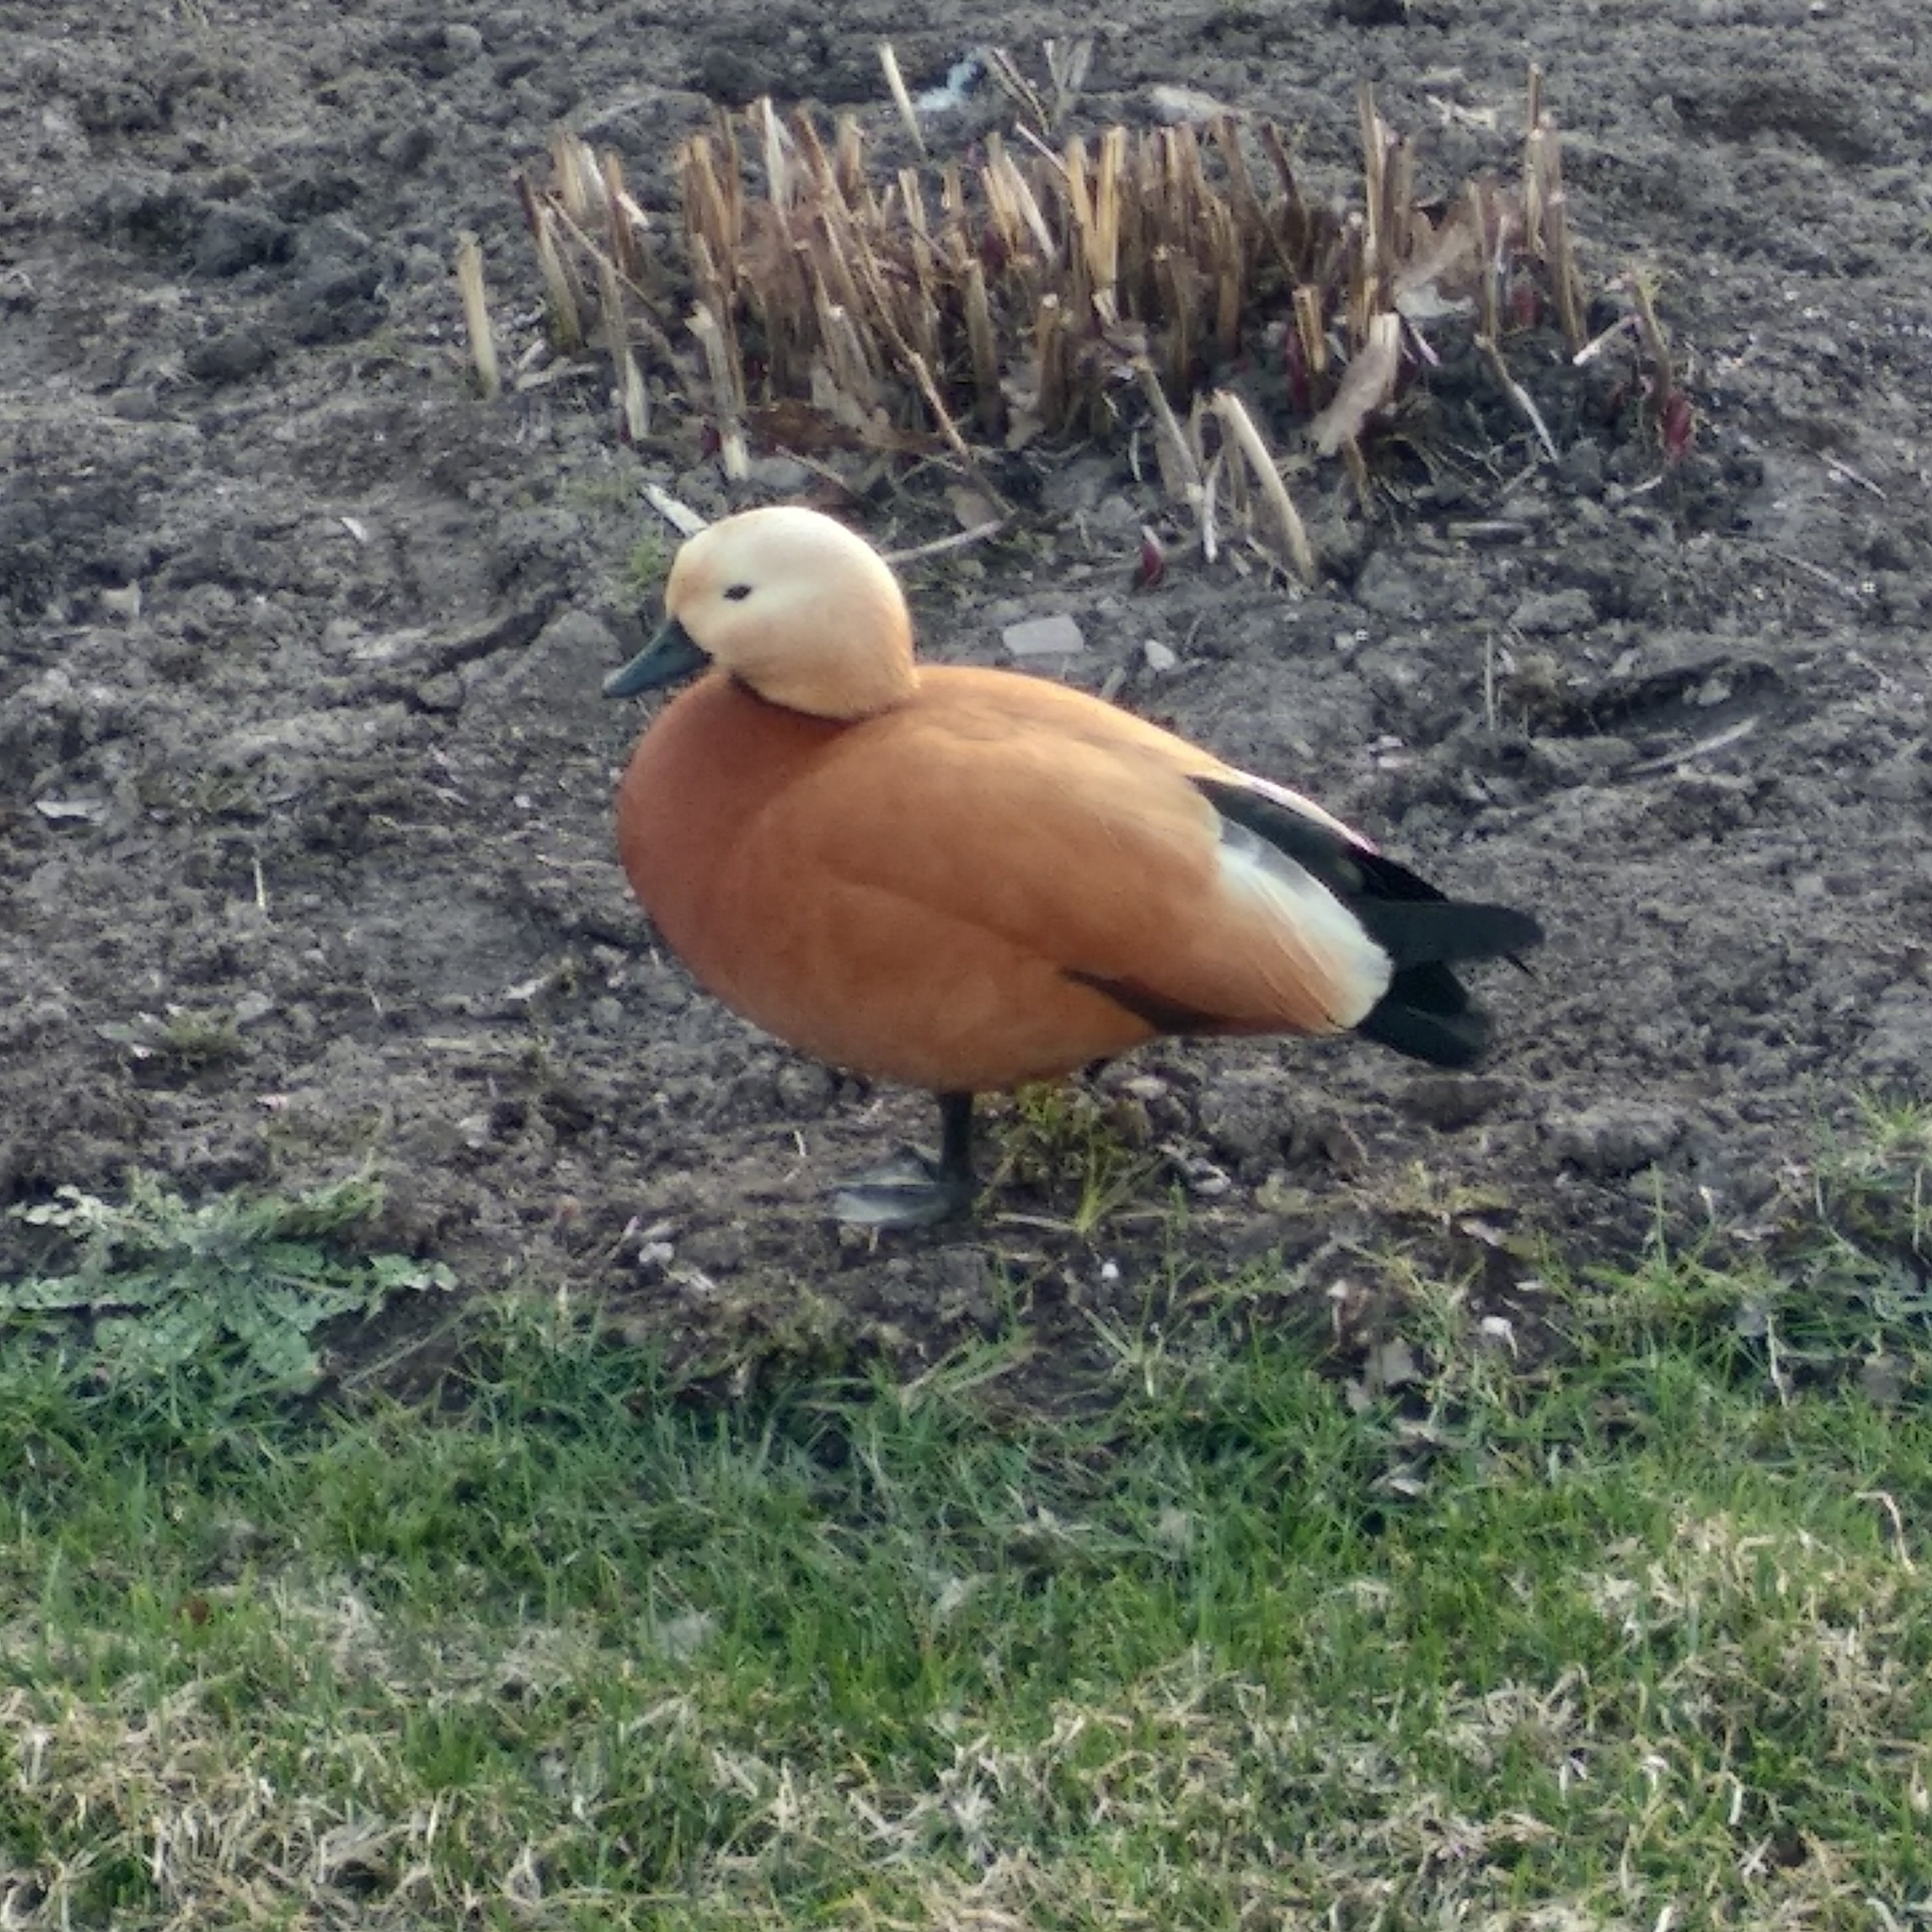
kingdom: Animalia
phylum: Chordata
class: Aves
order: Anseriformes
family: Anatidae
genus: Tadorna
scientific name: Tadorna ferruginea
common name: Ruddy shelduck
